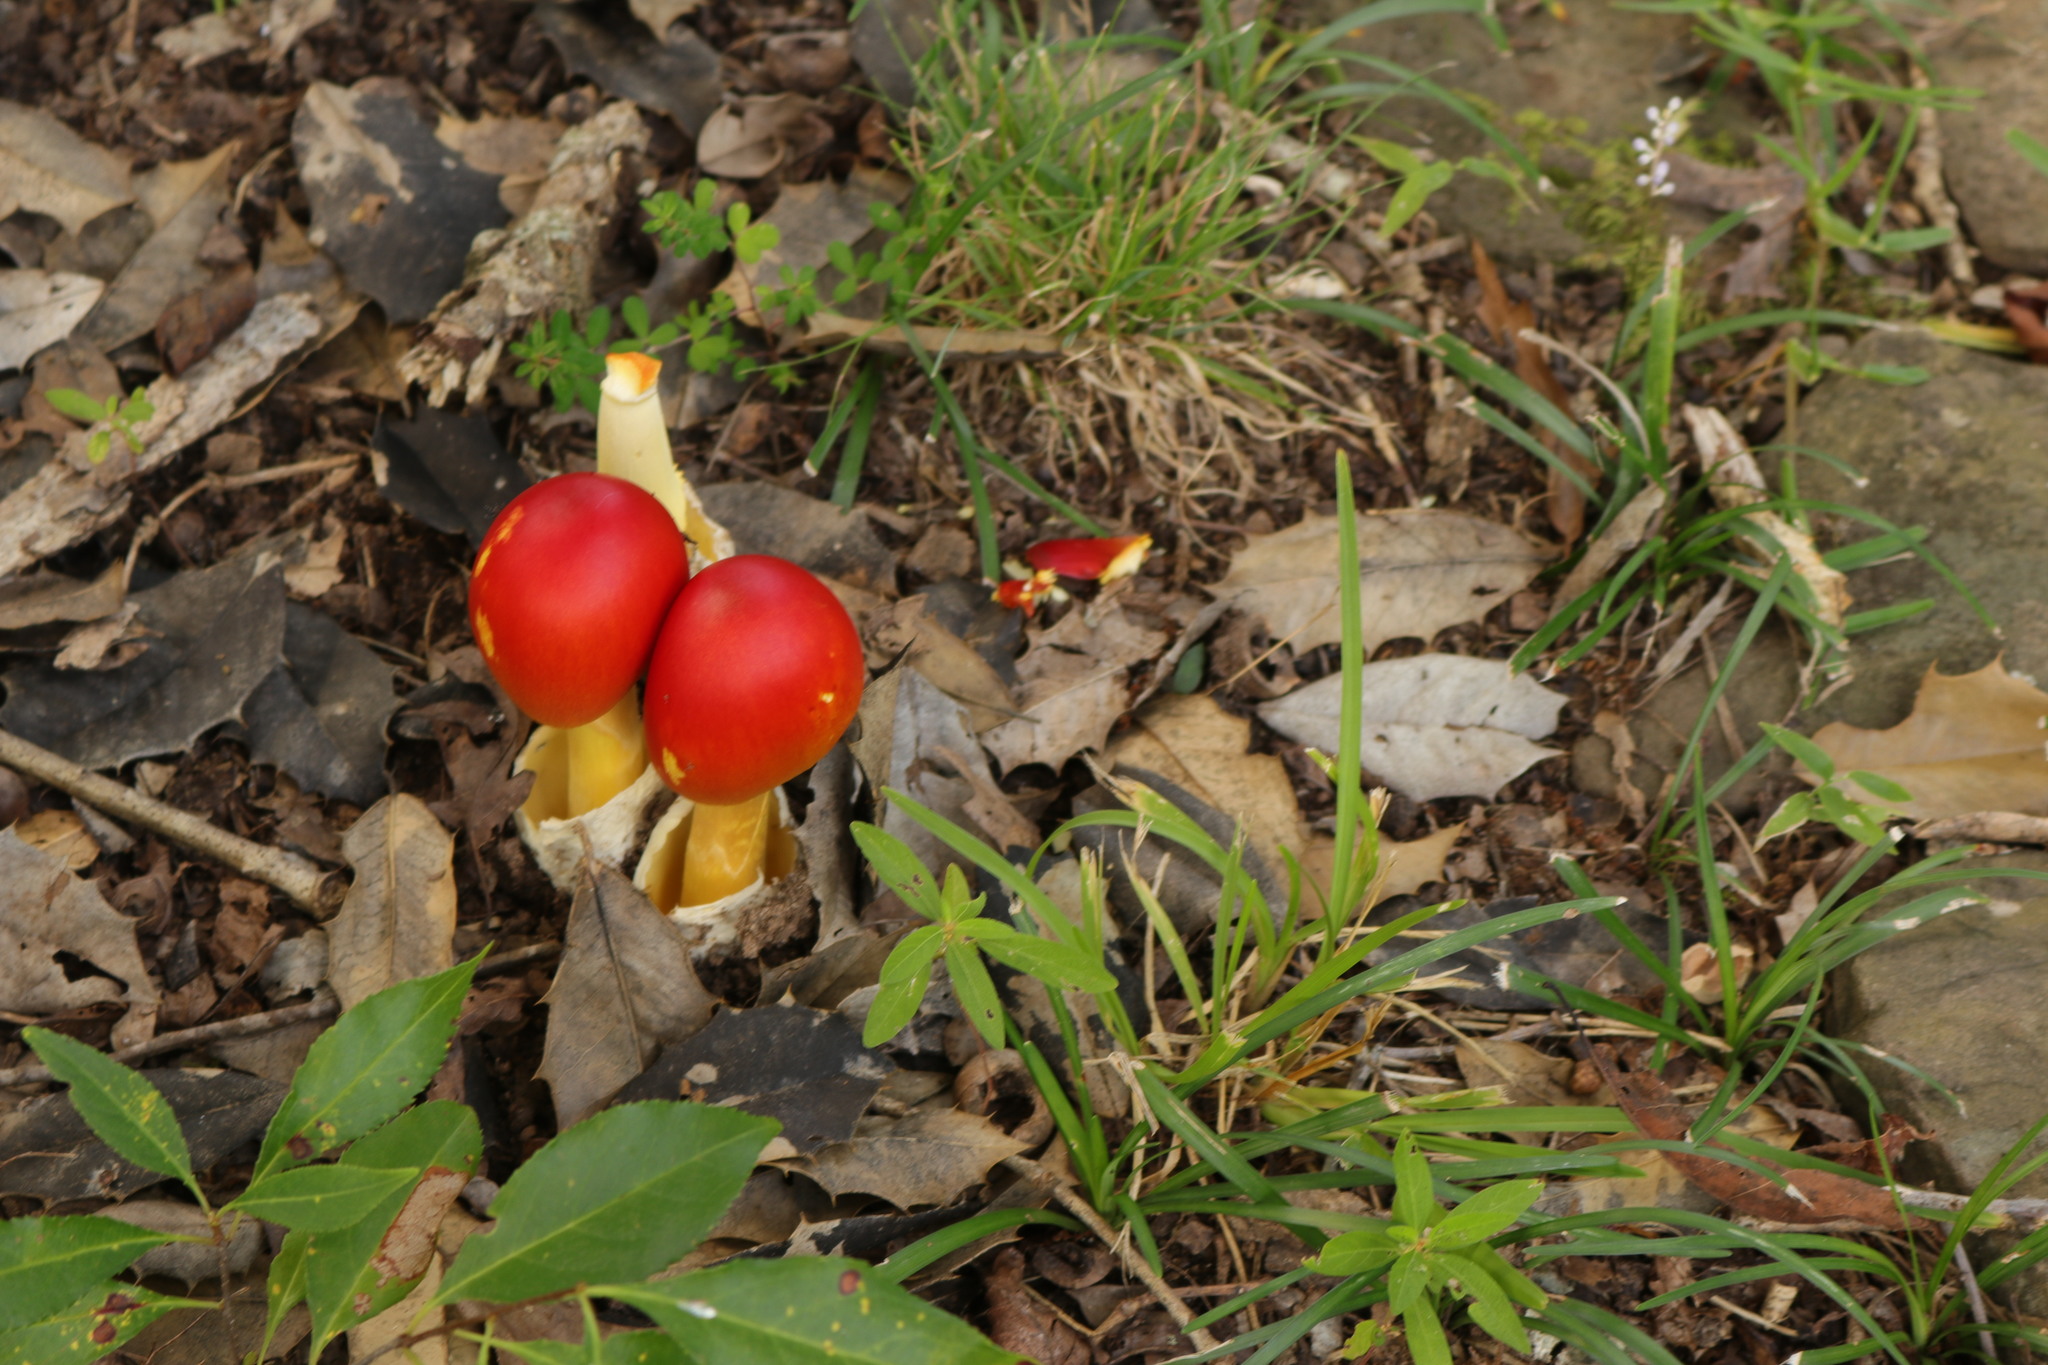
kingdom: Fungi
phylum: Basidiomycota
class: Agaricomycetes
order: Agaricales
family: Amanitaceae
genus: Amanita
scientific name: Amanita jacksonii
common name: Jackson's slender caesar
